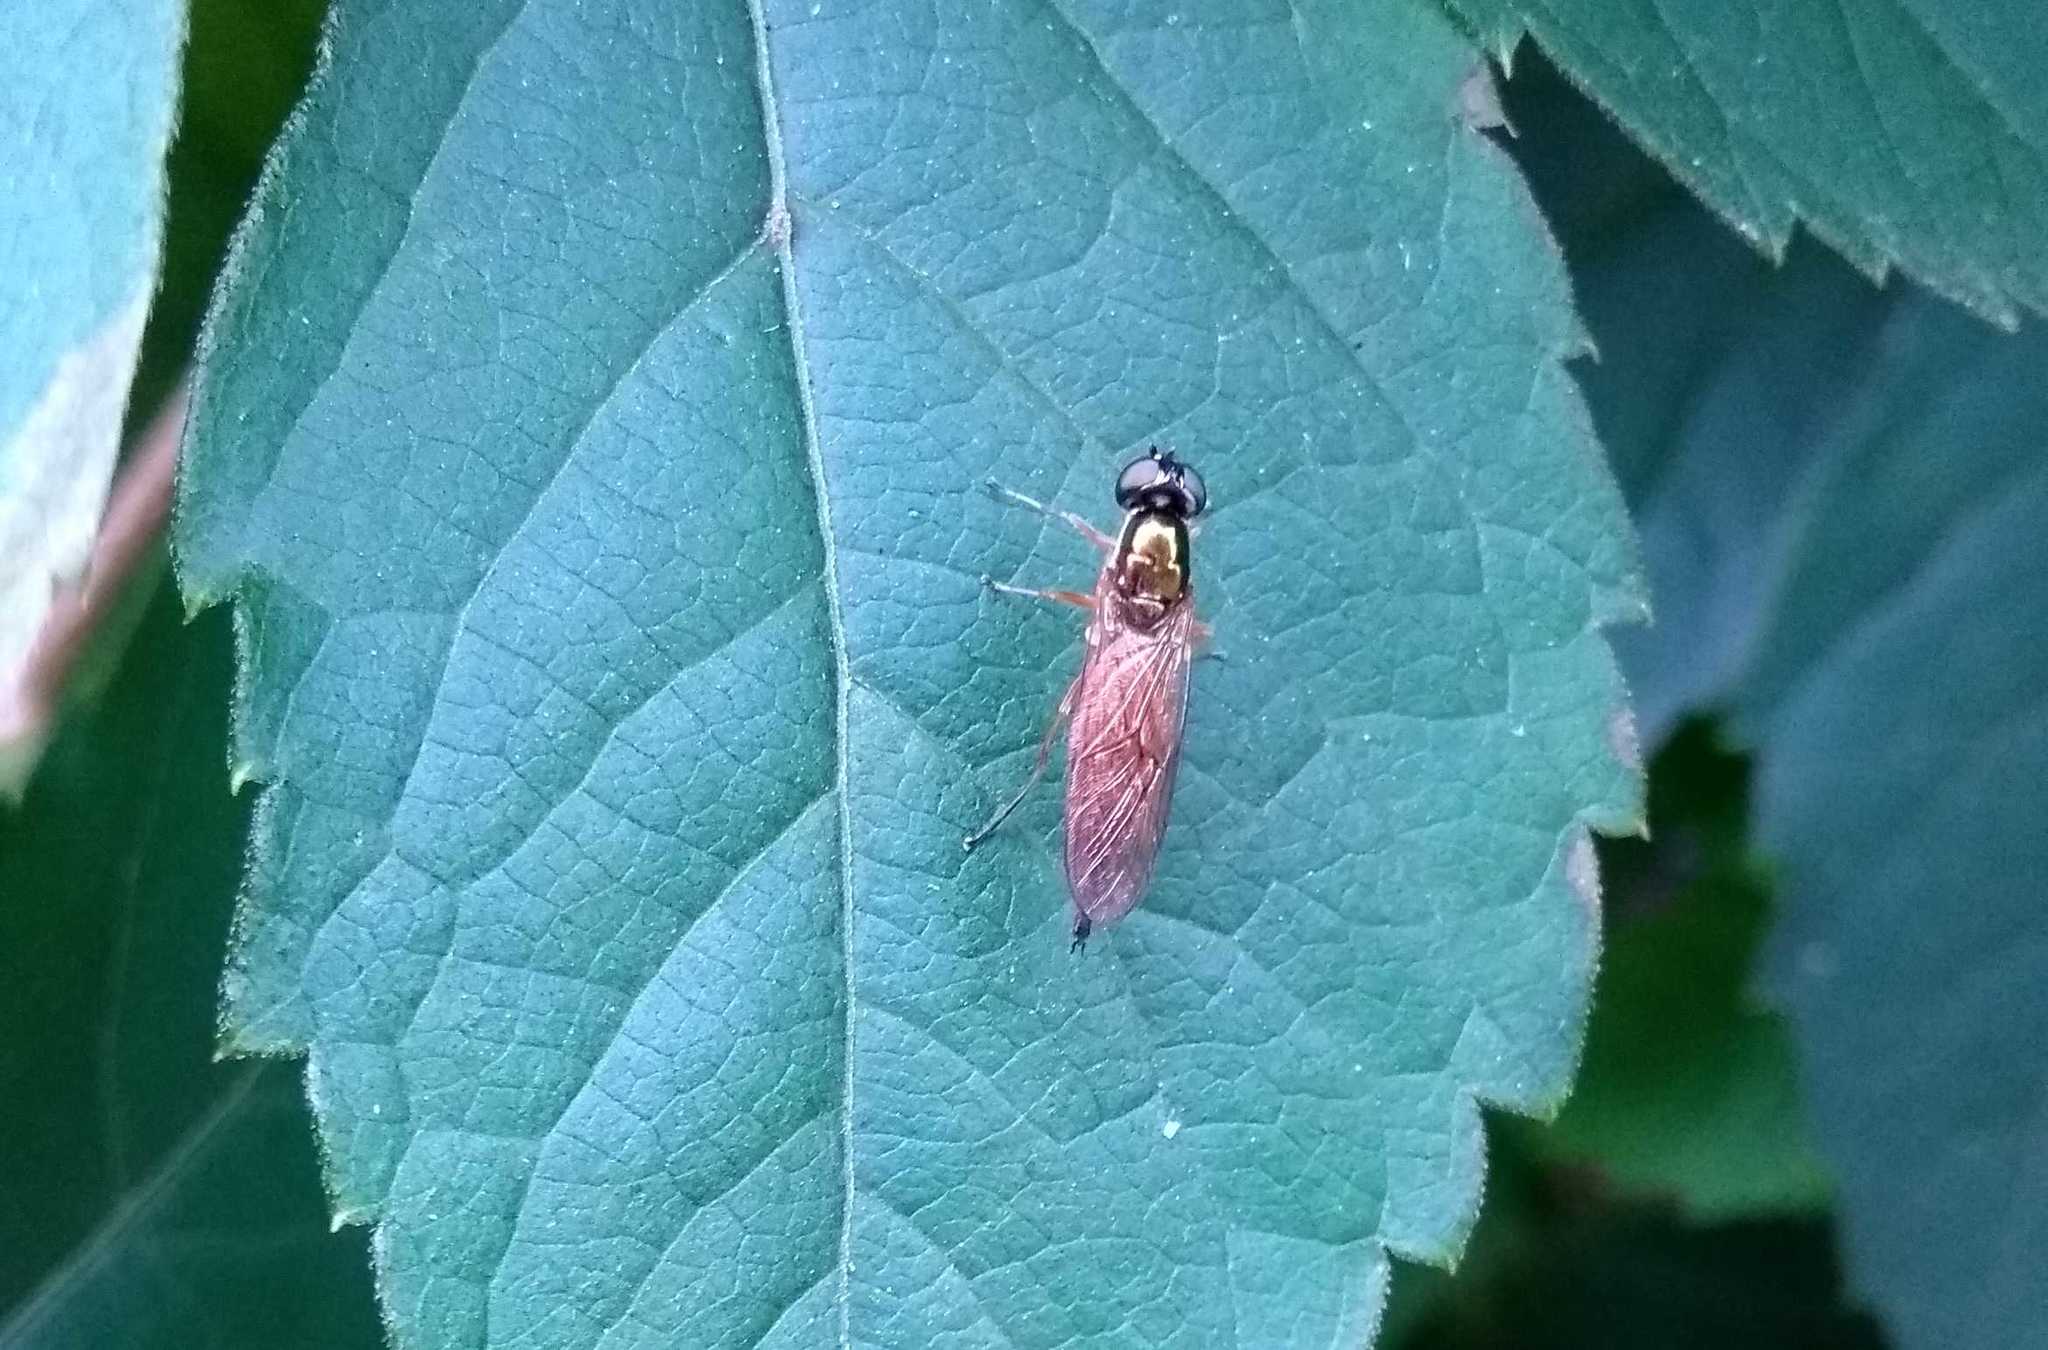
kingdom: Animalia
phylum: Arthropoda
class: Insecta
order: Diptera
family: Stratiomyidae
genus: Sargus
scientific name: Sargus bipunctatus
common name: Twin-spot centurion
